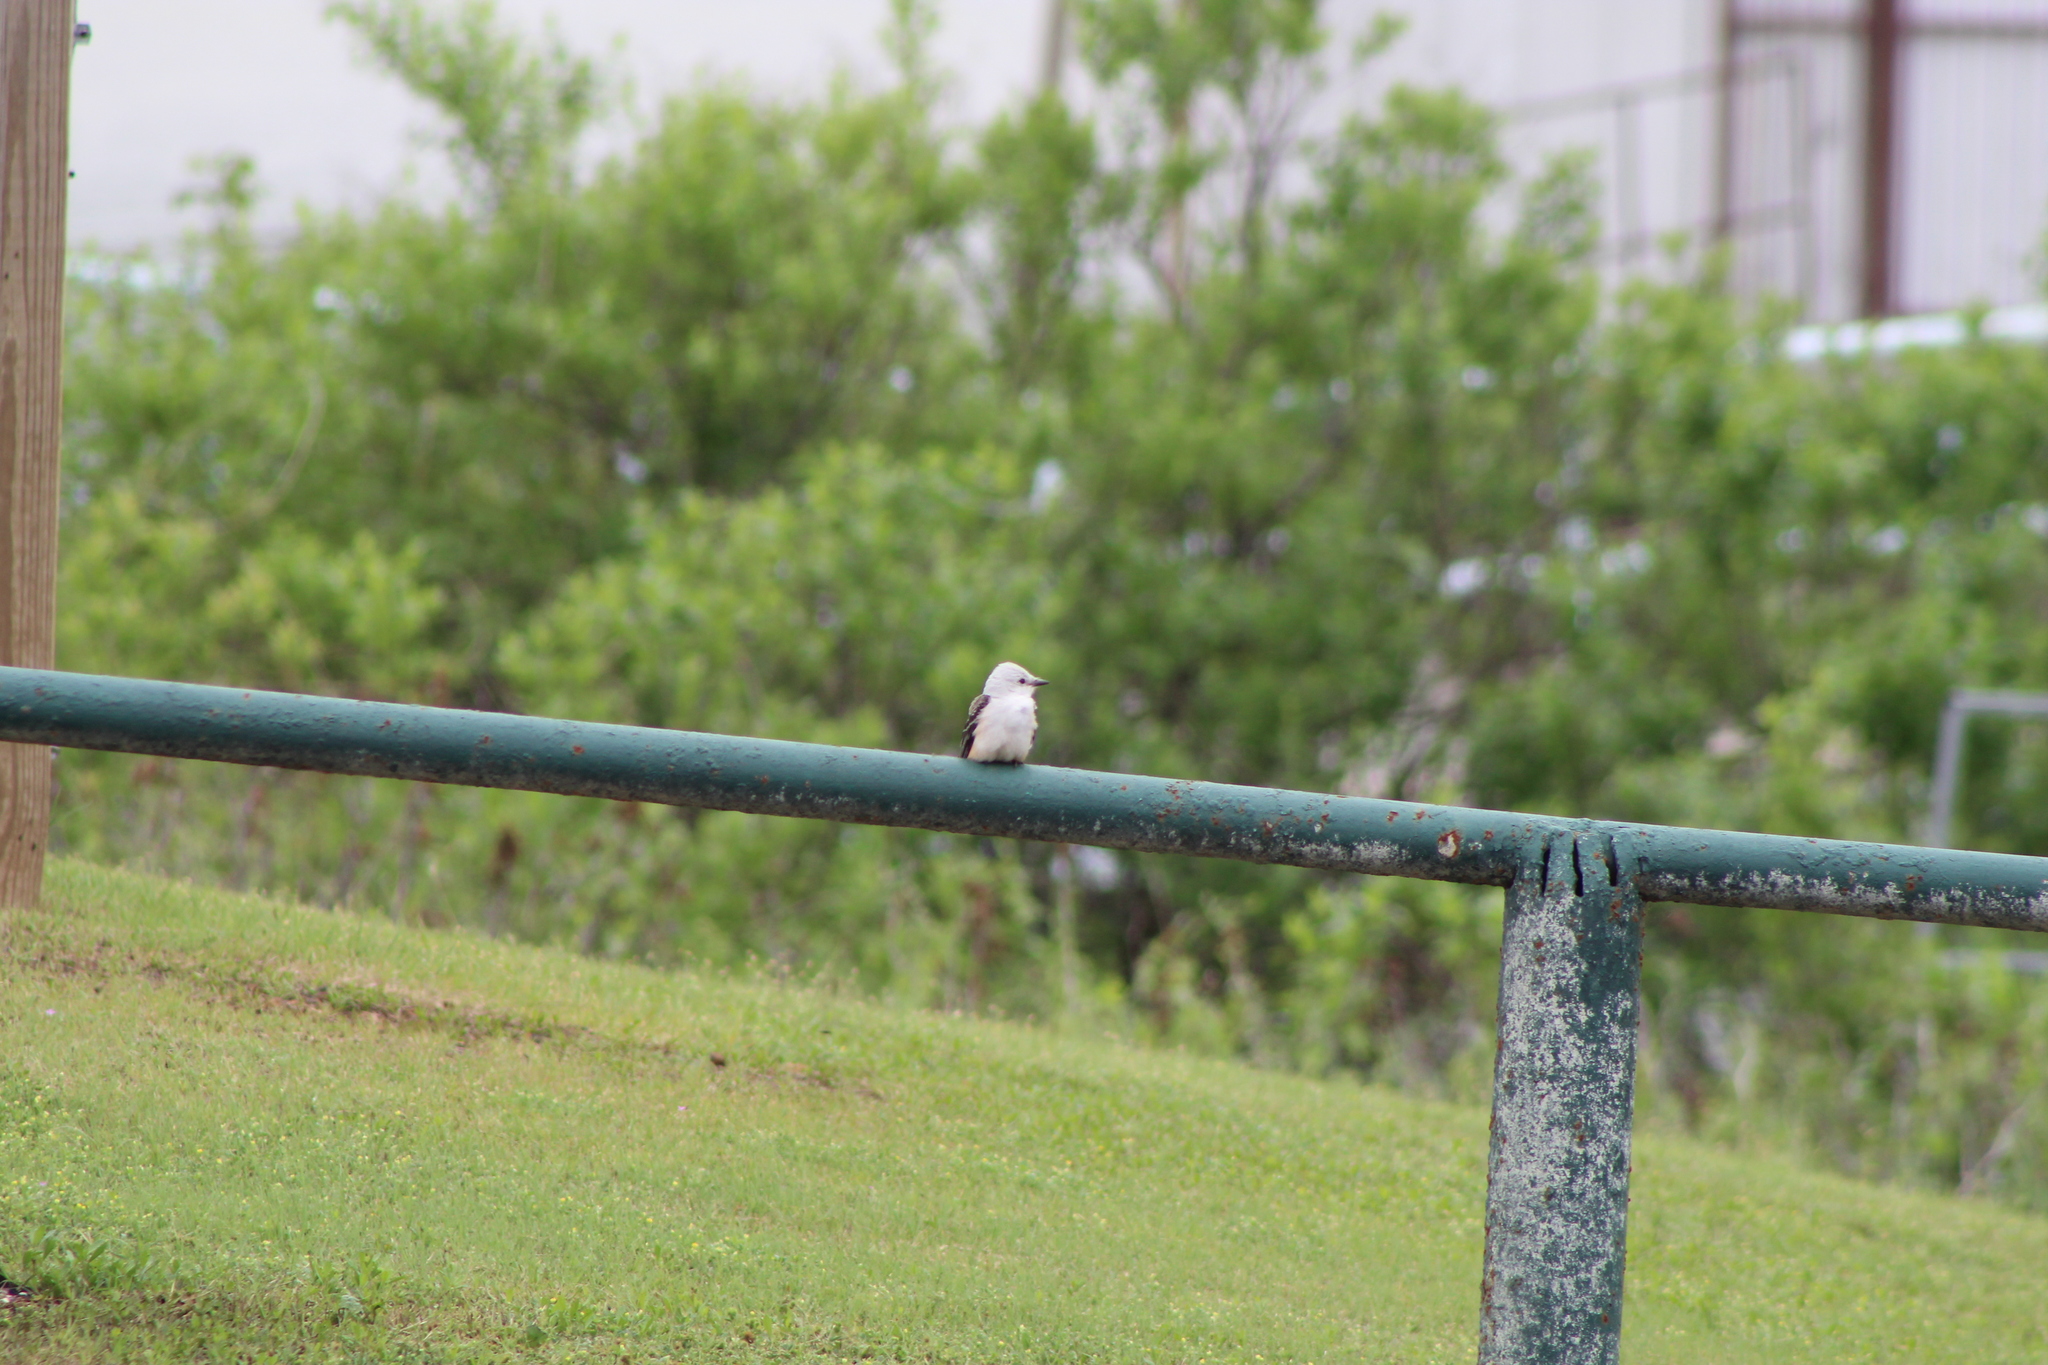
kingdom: Animalia
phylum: Chordata
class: Aves
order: Passeriformes
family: Tyrannidae
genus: Tyrannus
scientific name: Tyrannus forficatus
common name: Scissor-tailed flycatcher
